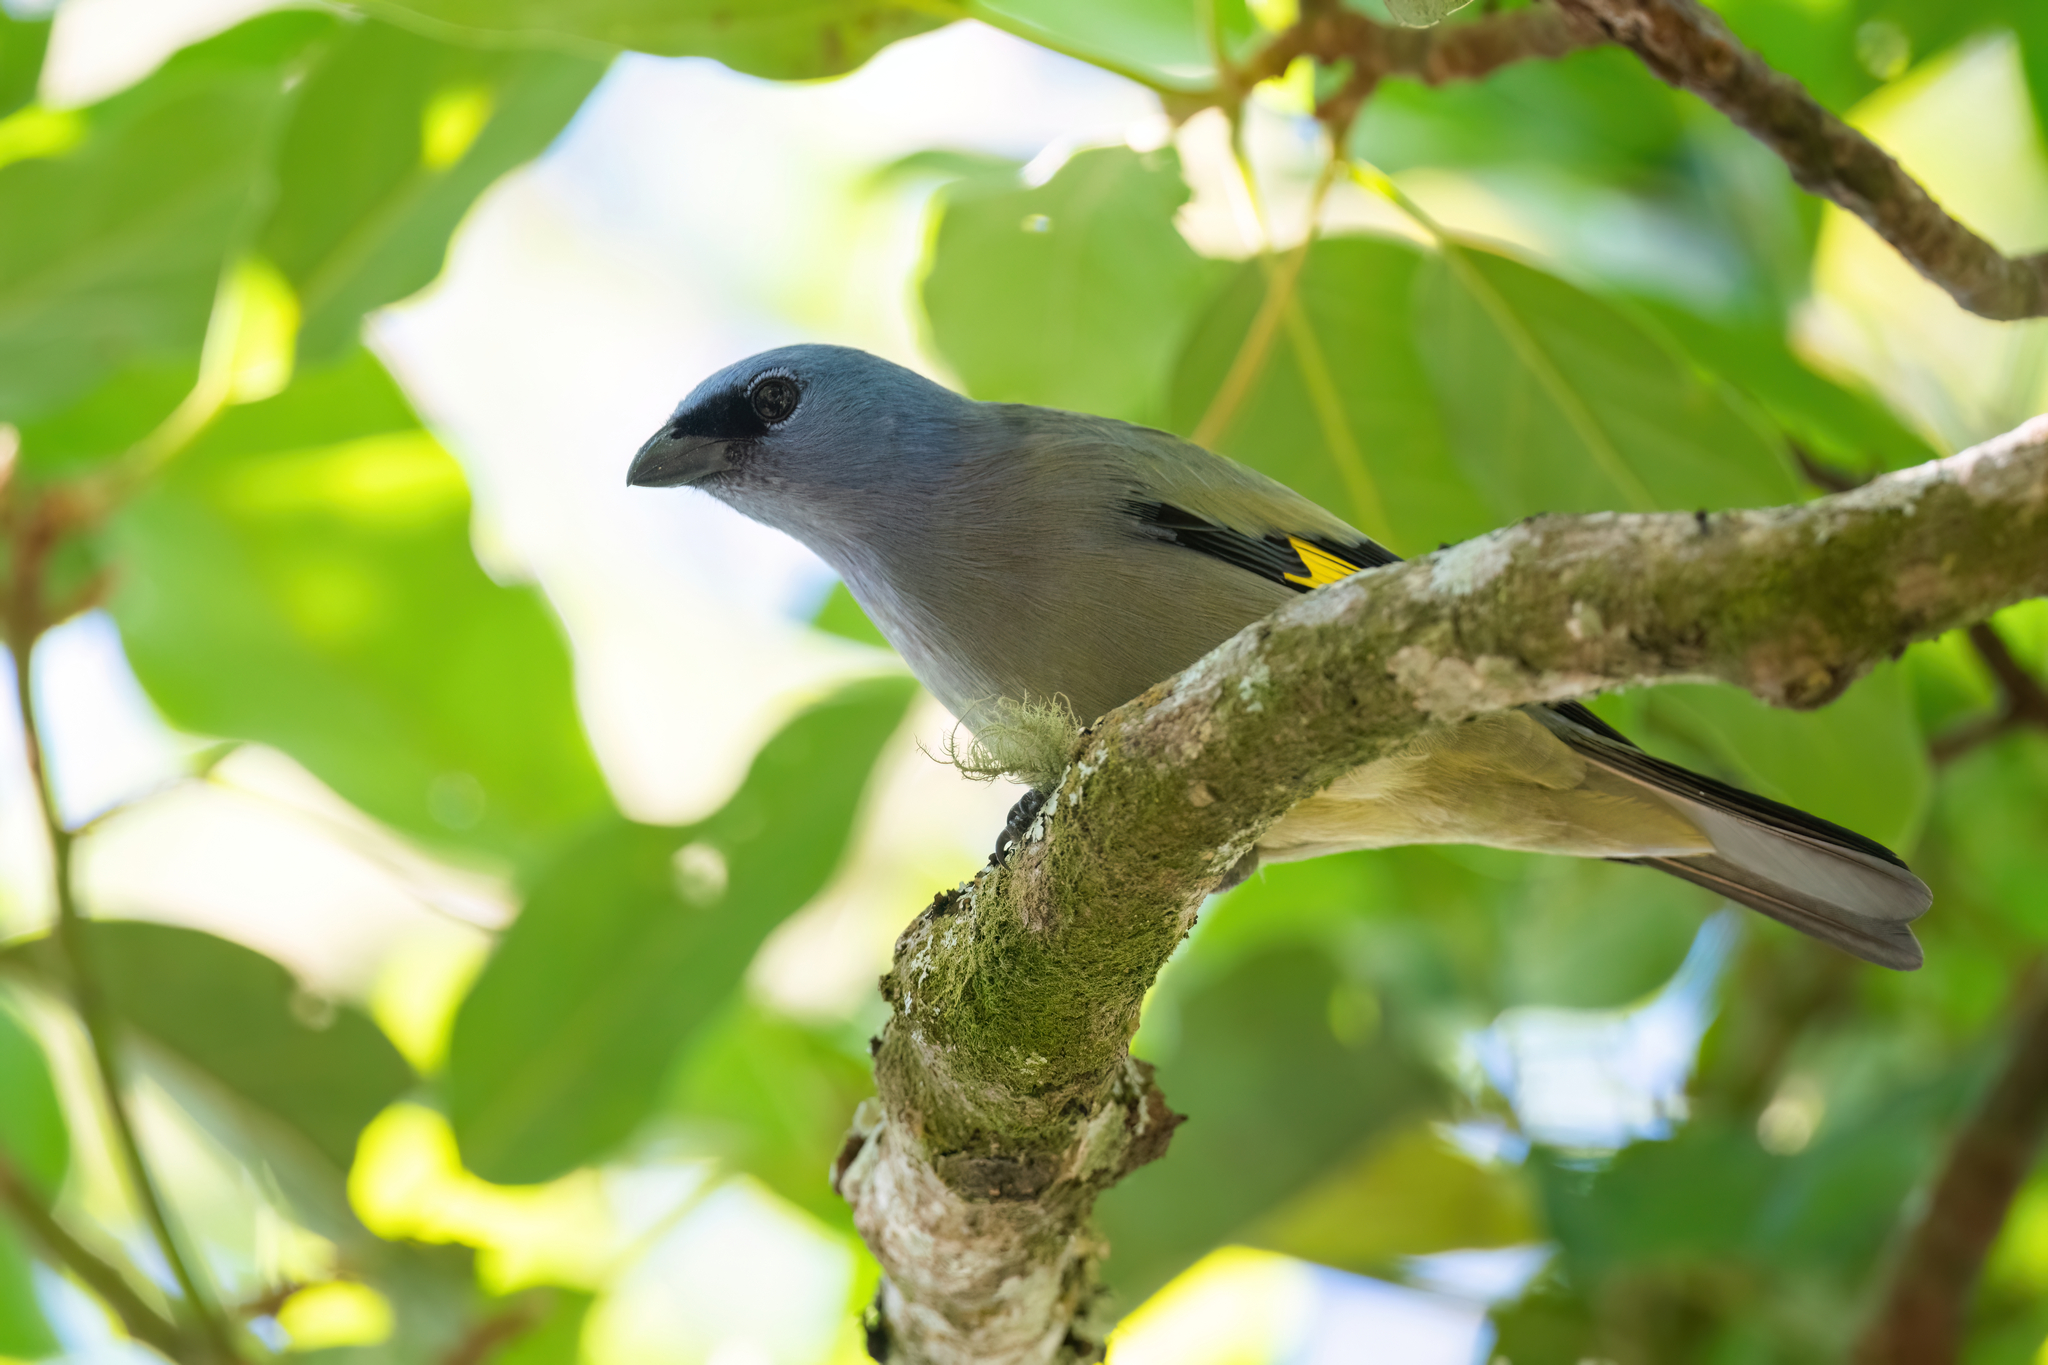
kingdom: Animalia
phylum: Chordata
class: Aves
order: Passeriformes
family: Thraupidae
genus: Thraupis
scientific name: Thraupis abbas
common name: Yellow-winged tanager
